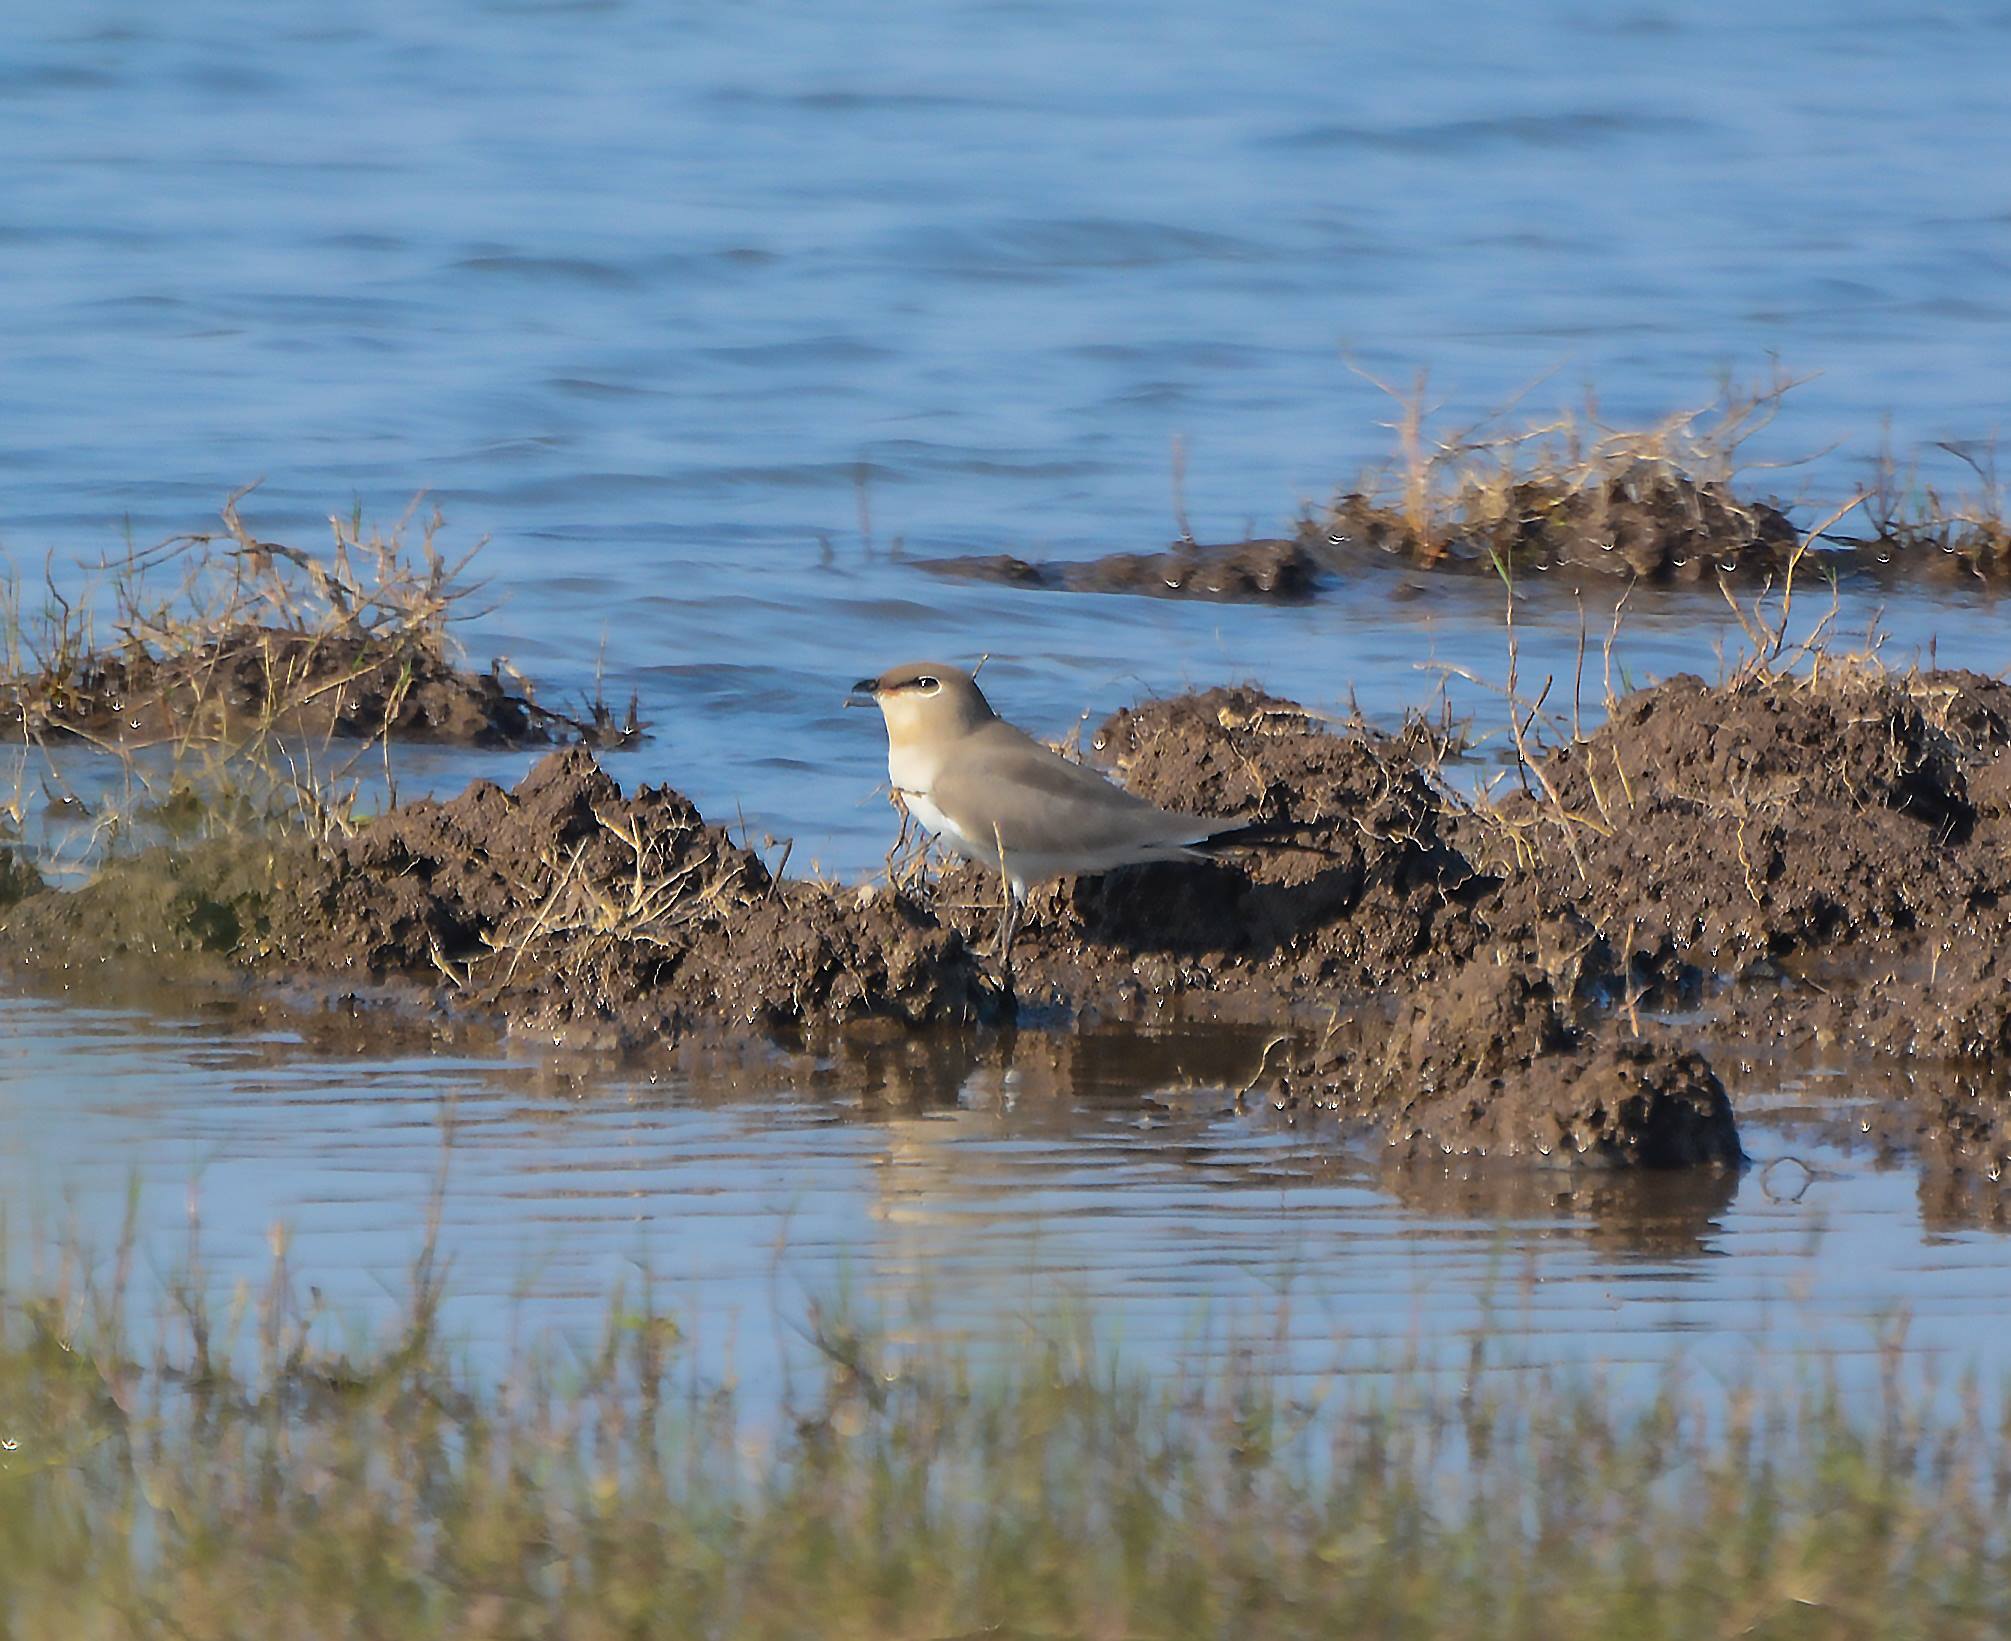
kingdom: Animalia
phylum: Chordata
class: Aves
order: Charadriiformes
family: Glareolidae
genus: Glareola
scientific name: Glareola lactea
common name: Small pratincole
